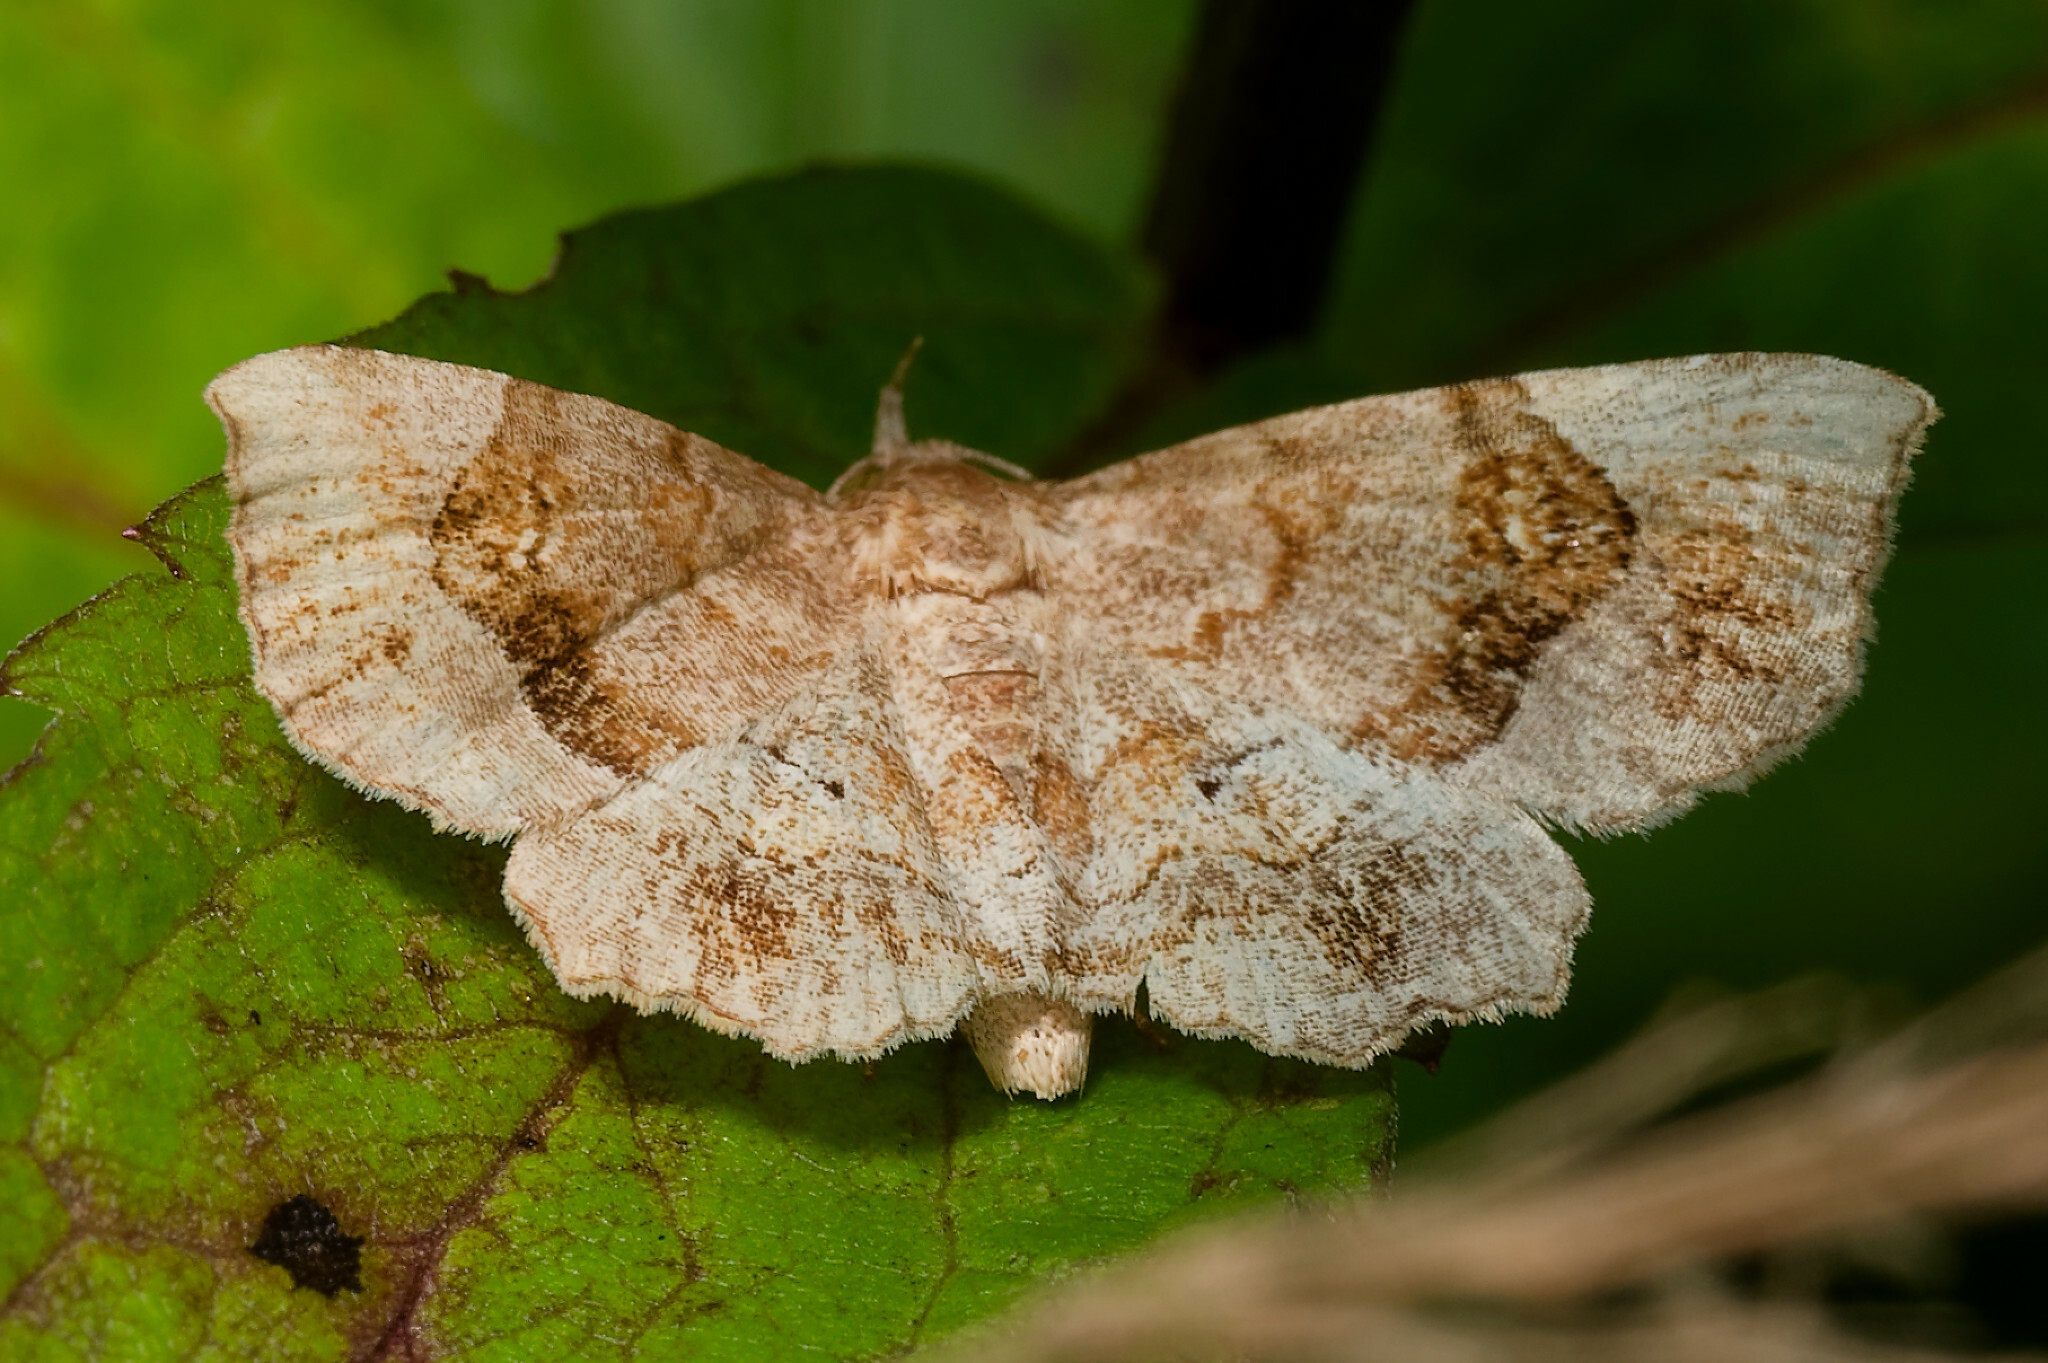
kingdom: Animalia
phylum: Arthropoda
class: Insecta
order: Lepidoptera
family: Erebidae
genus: Pangrapta
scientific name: Pangrapta decoralis
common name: Decorated owlet
